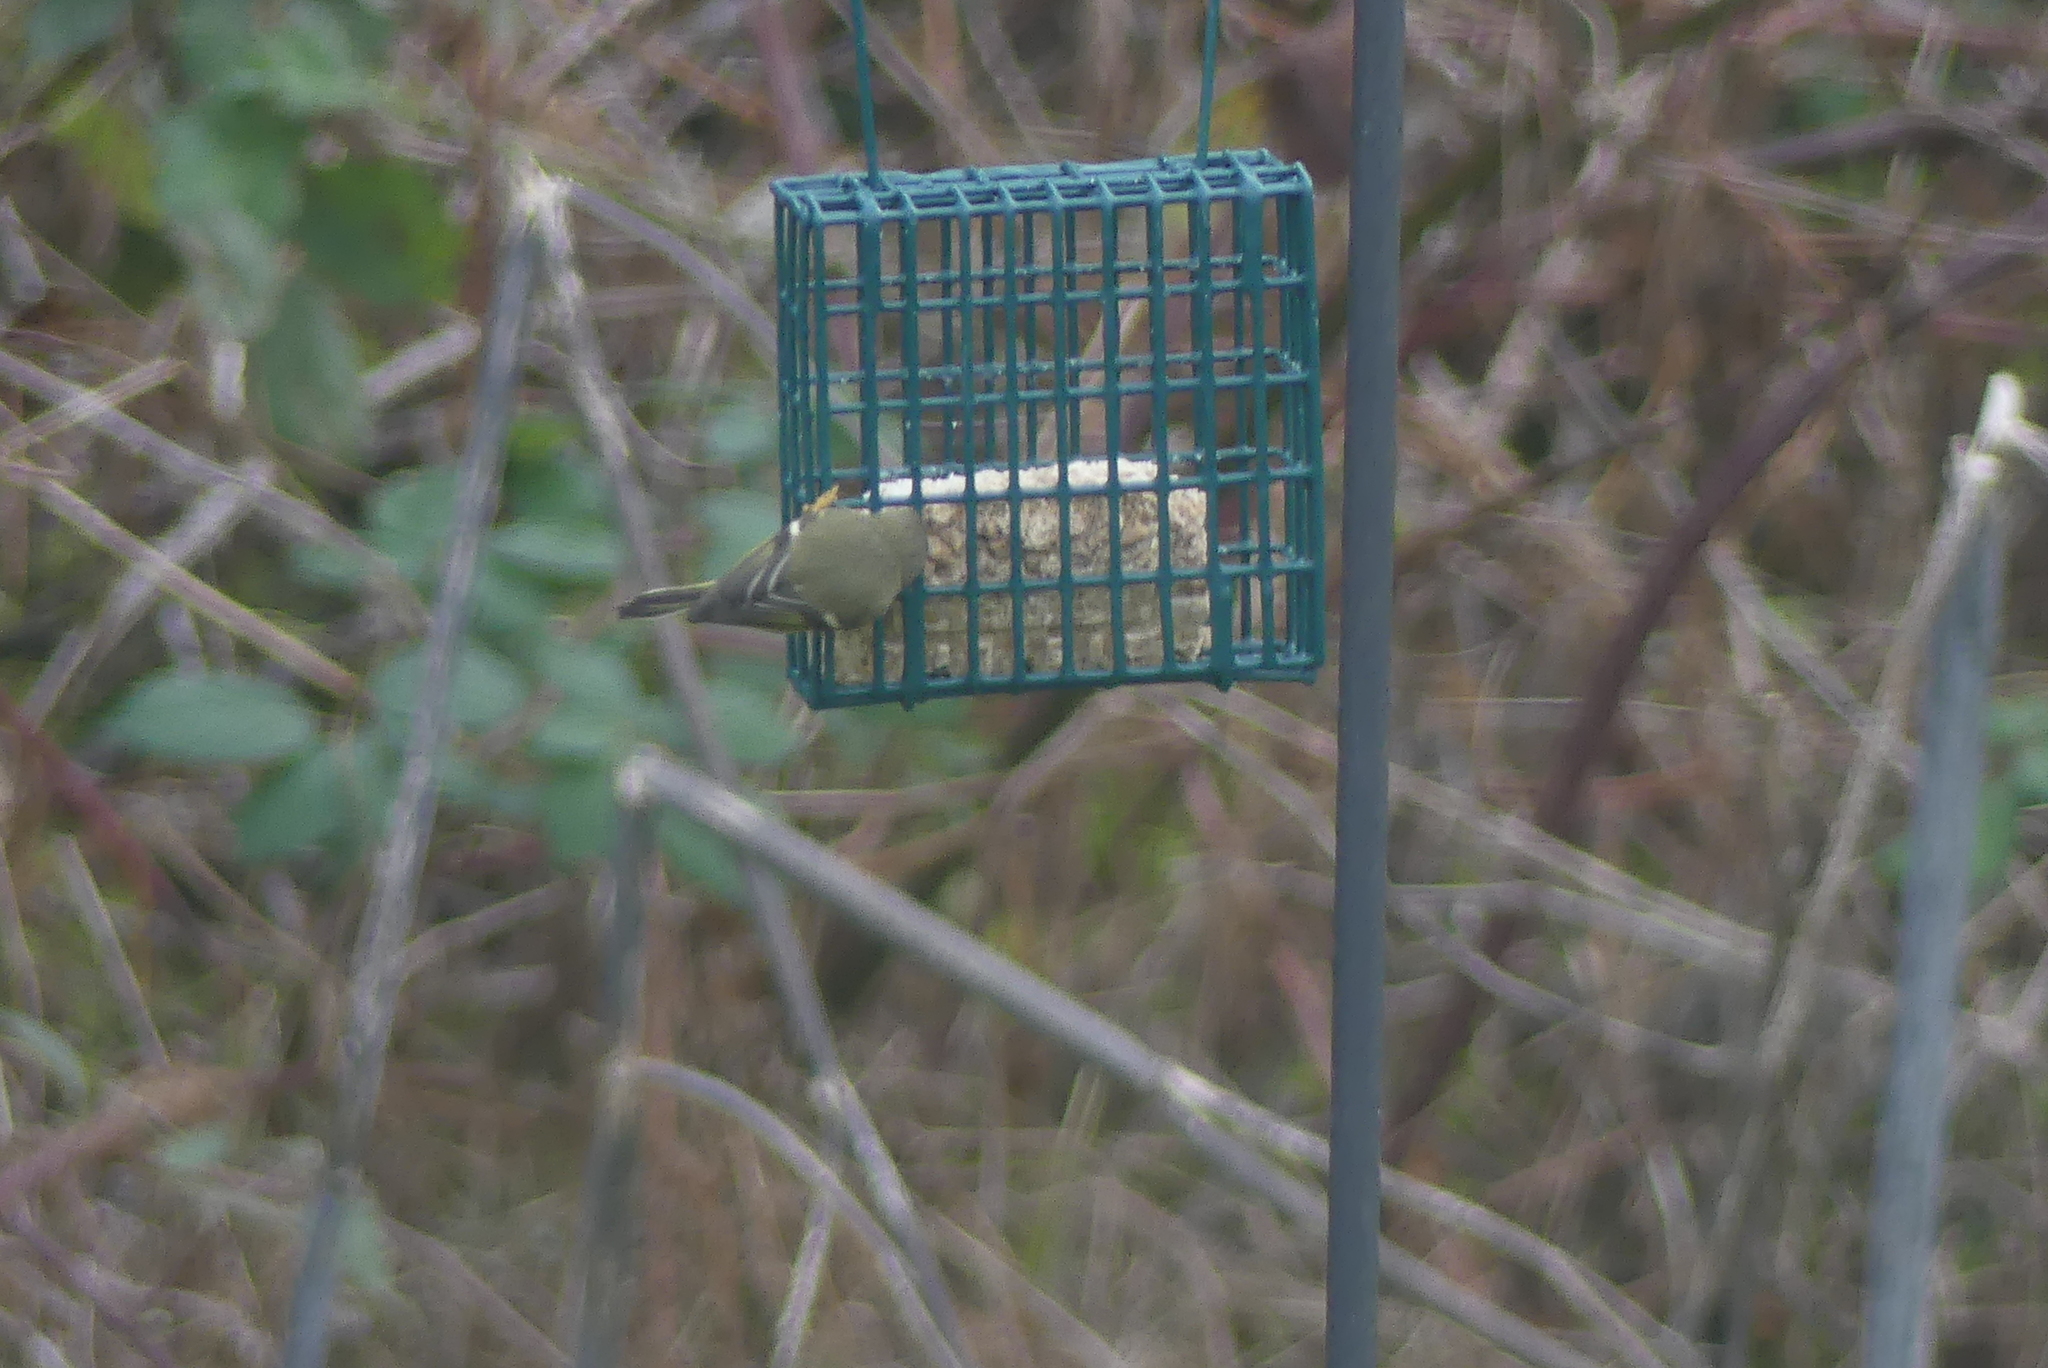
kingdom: Animalia
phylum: Chordata
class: Aves
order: Passeriformes
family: Regulidae
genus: Regulus
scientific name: Regulus calendula
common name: Ruby-crowned kinglet
